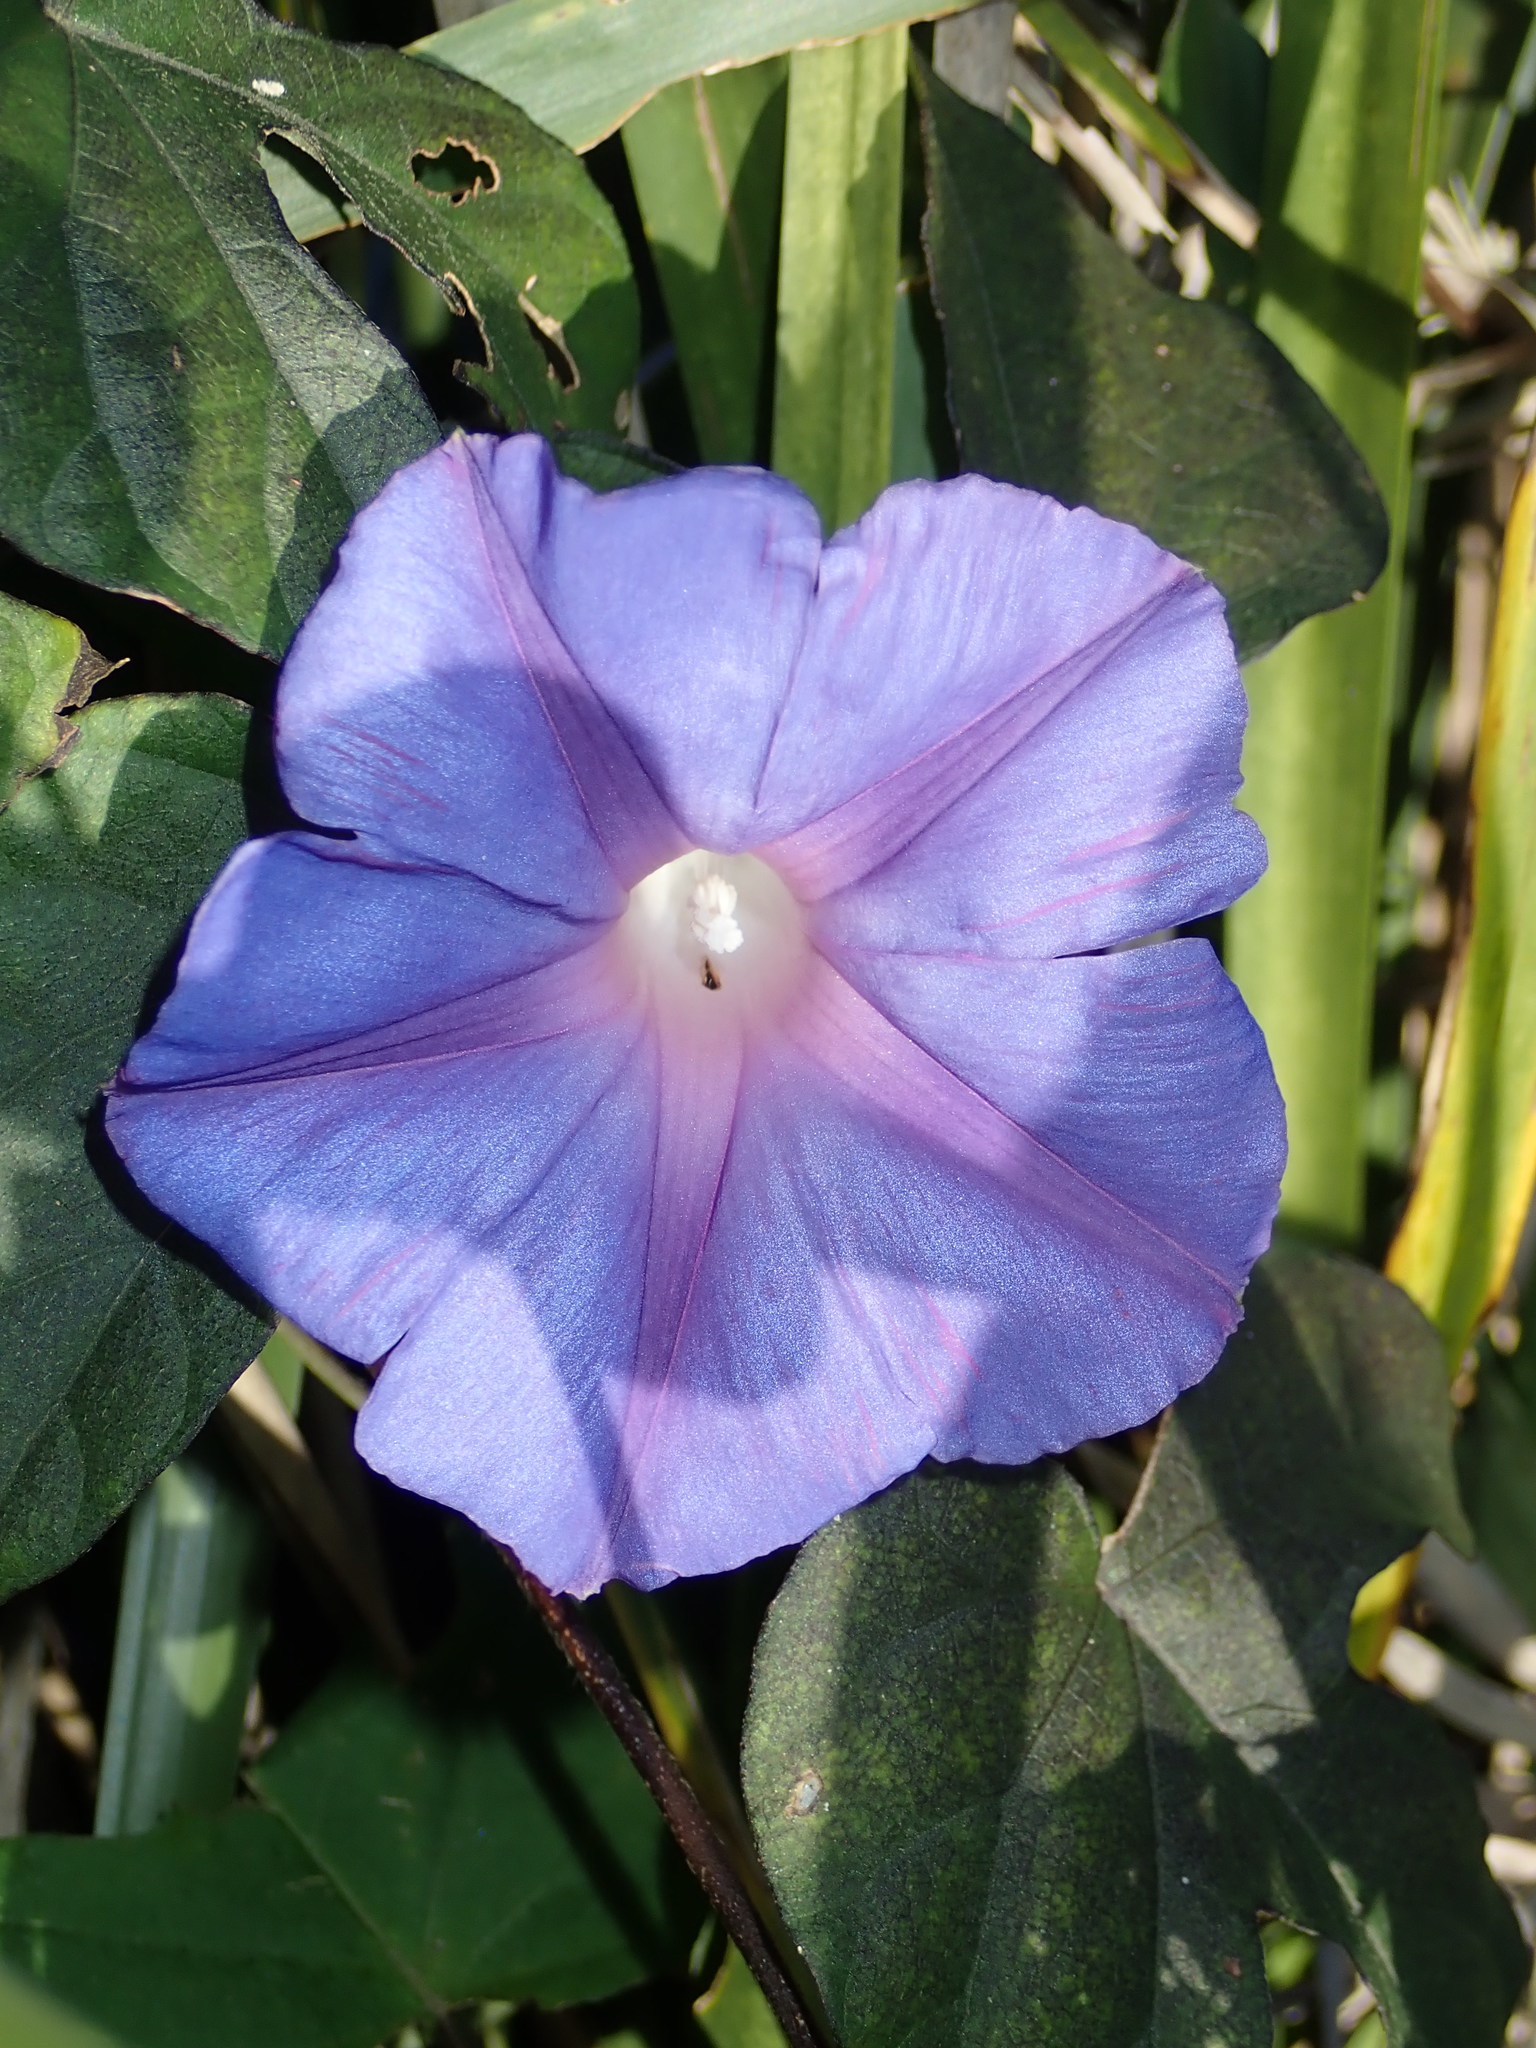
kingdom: Plantae
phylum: Tracheophyta
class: Magnoliopsida
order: Solanales
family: Convolvulaceae
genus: Ipomoea
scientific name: Ipomoea indica
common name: Blue dawnflower
